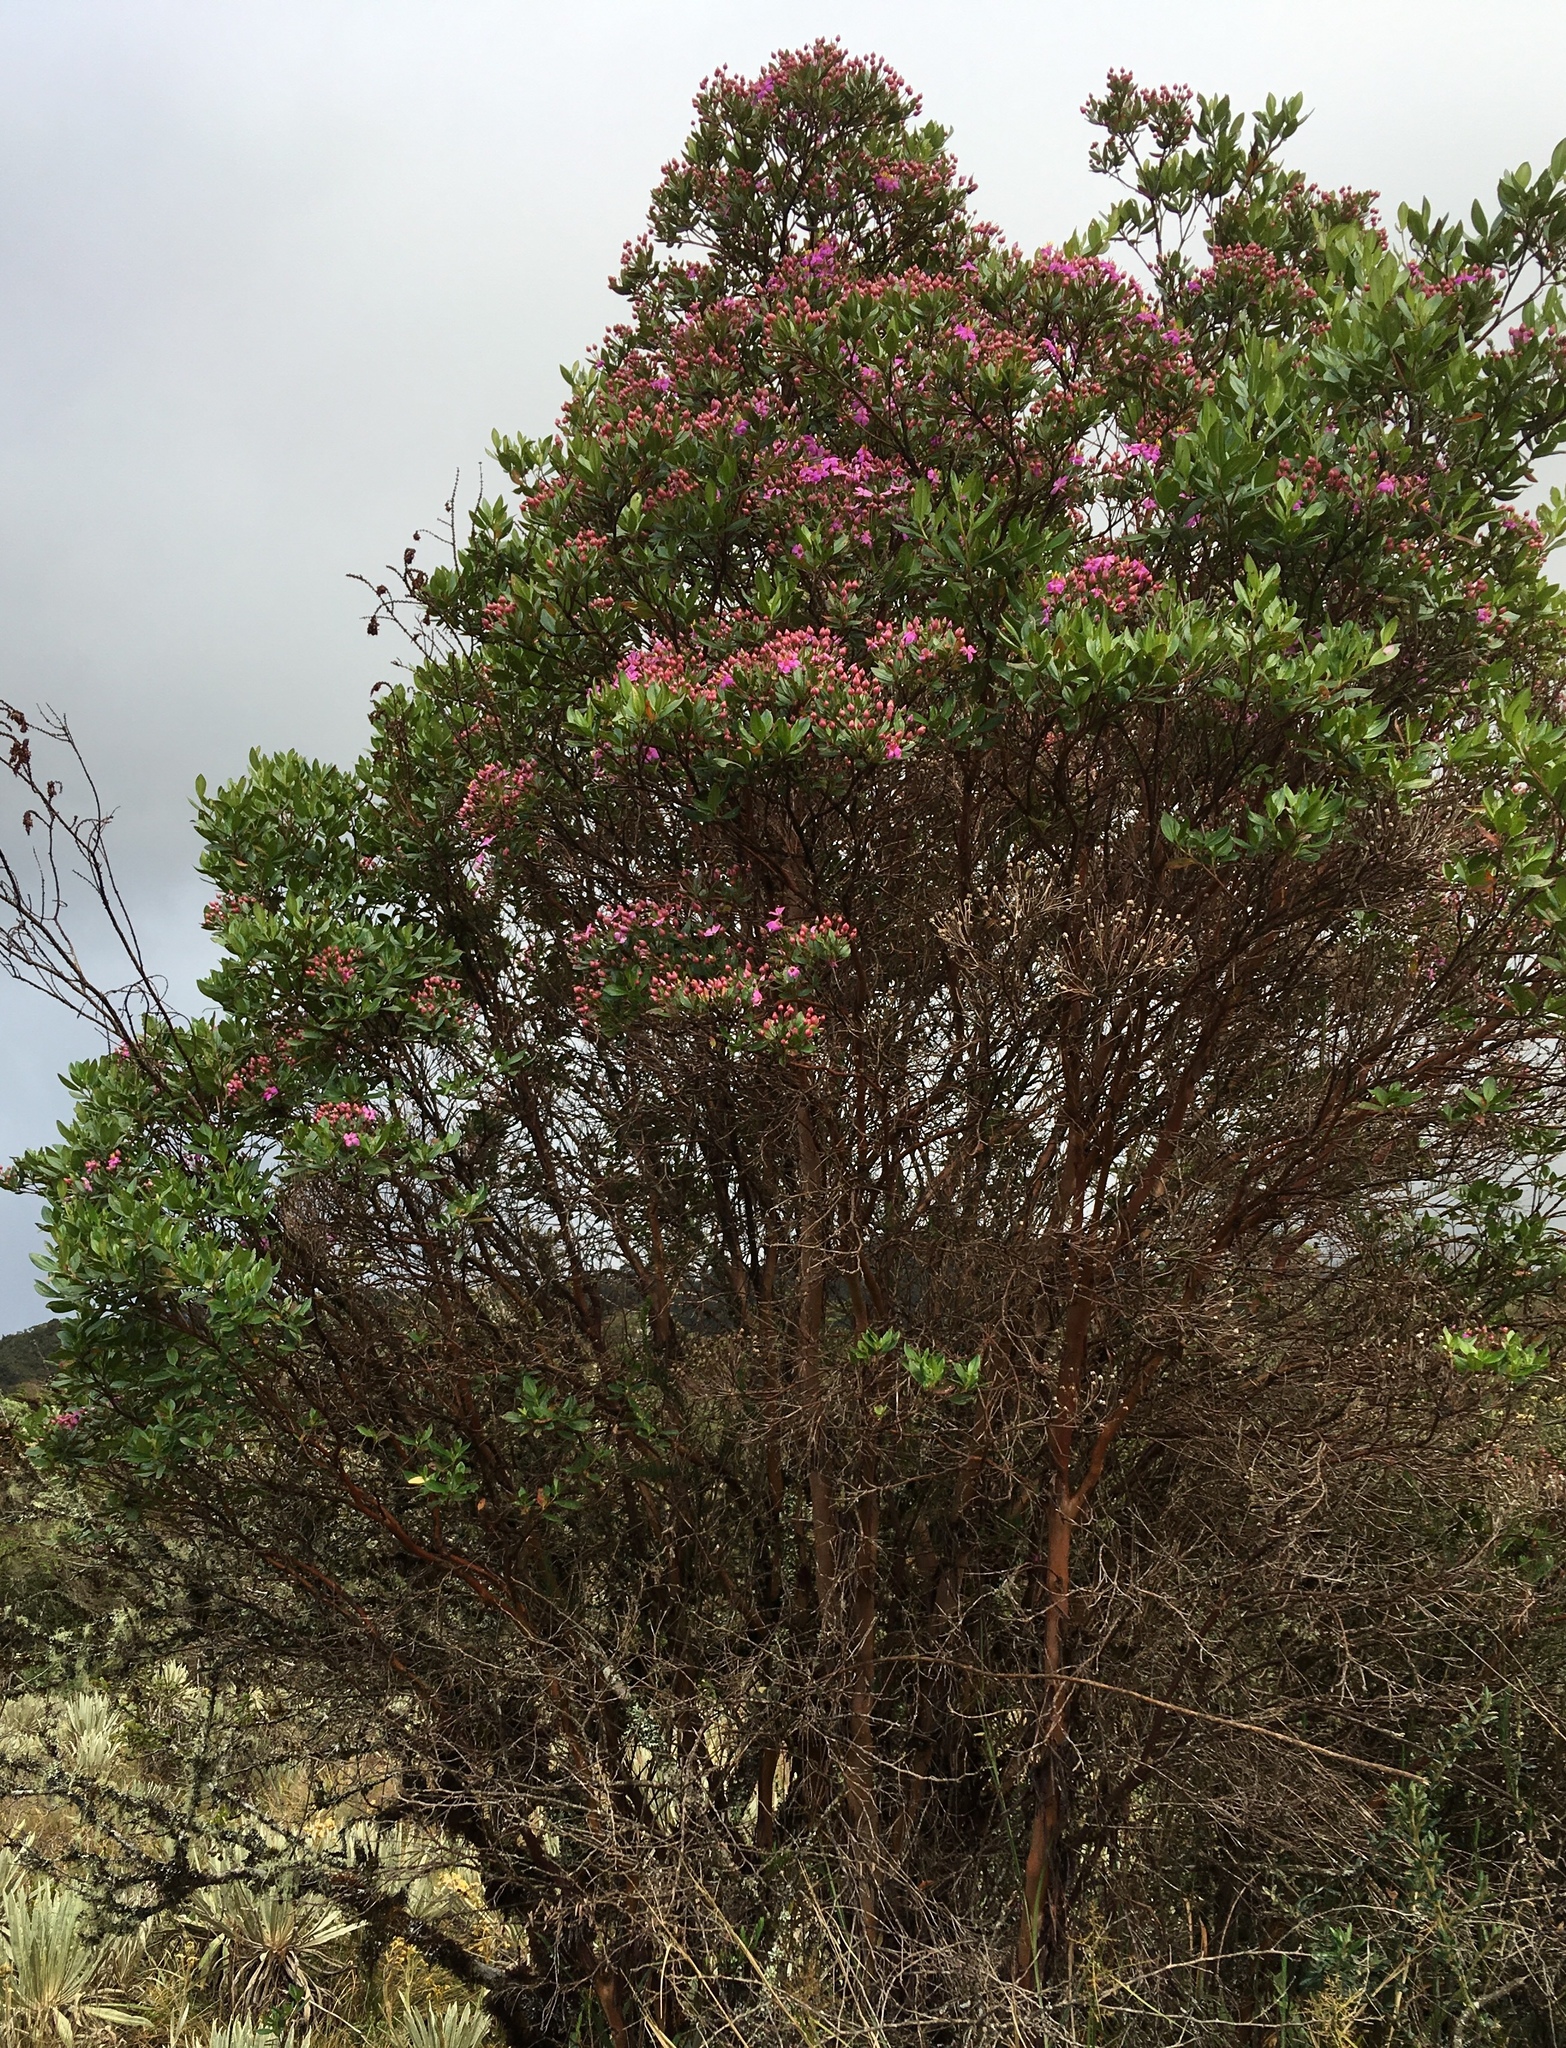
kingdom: Plantae
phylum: Tracheophyta
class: Magnoliopsida
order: Myrtales
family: Melastomataceae
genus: Bucquetia
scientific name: Bucquetia glutinosa
